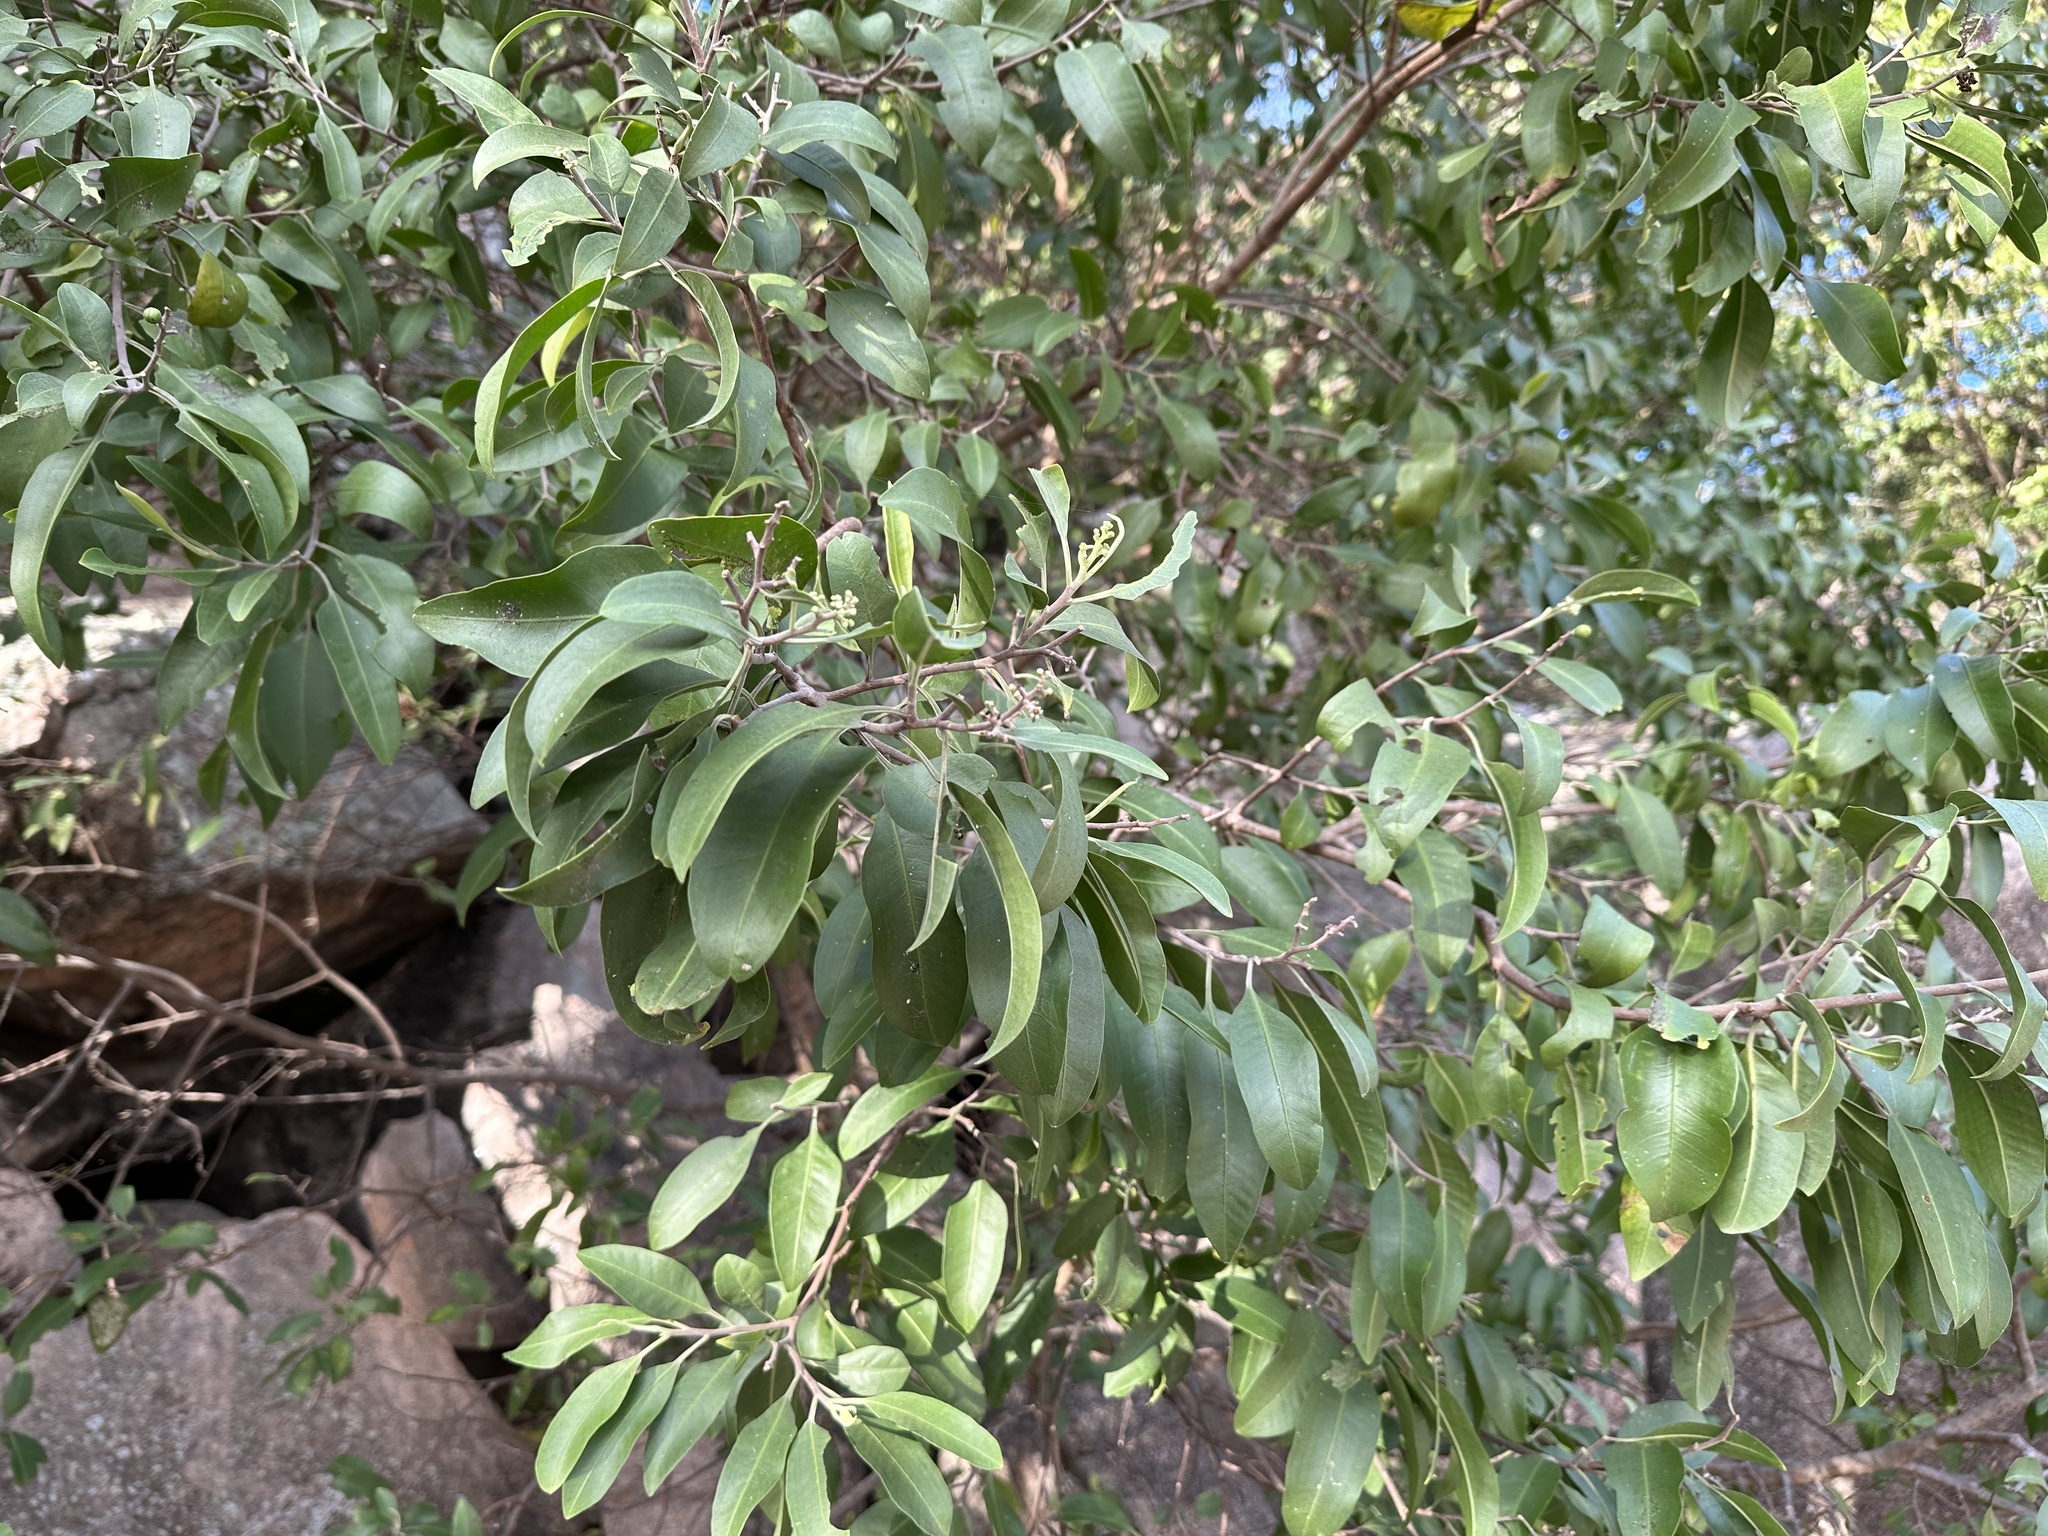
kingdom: Plantae
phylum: Tracheophyta
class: Magnoliopsida
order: Sapindales
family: Rutaceae
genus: Geijera
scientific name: Geijera salicifolia
